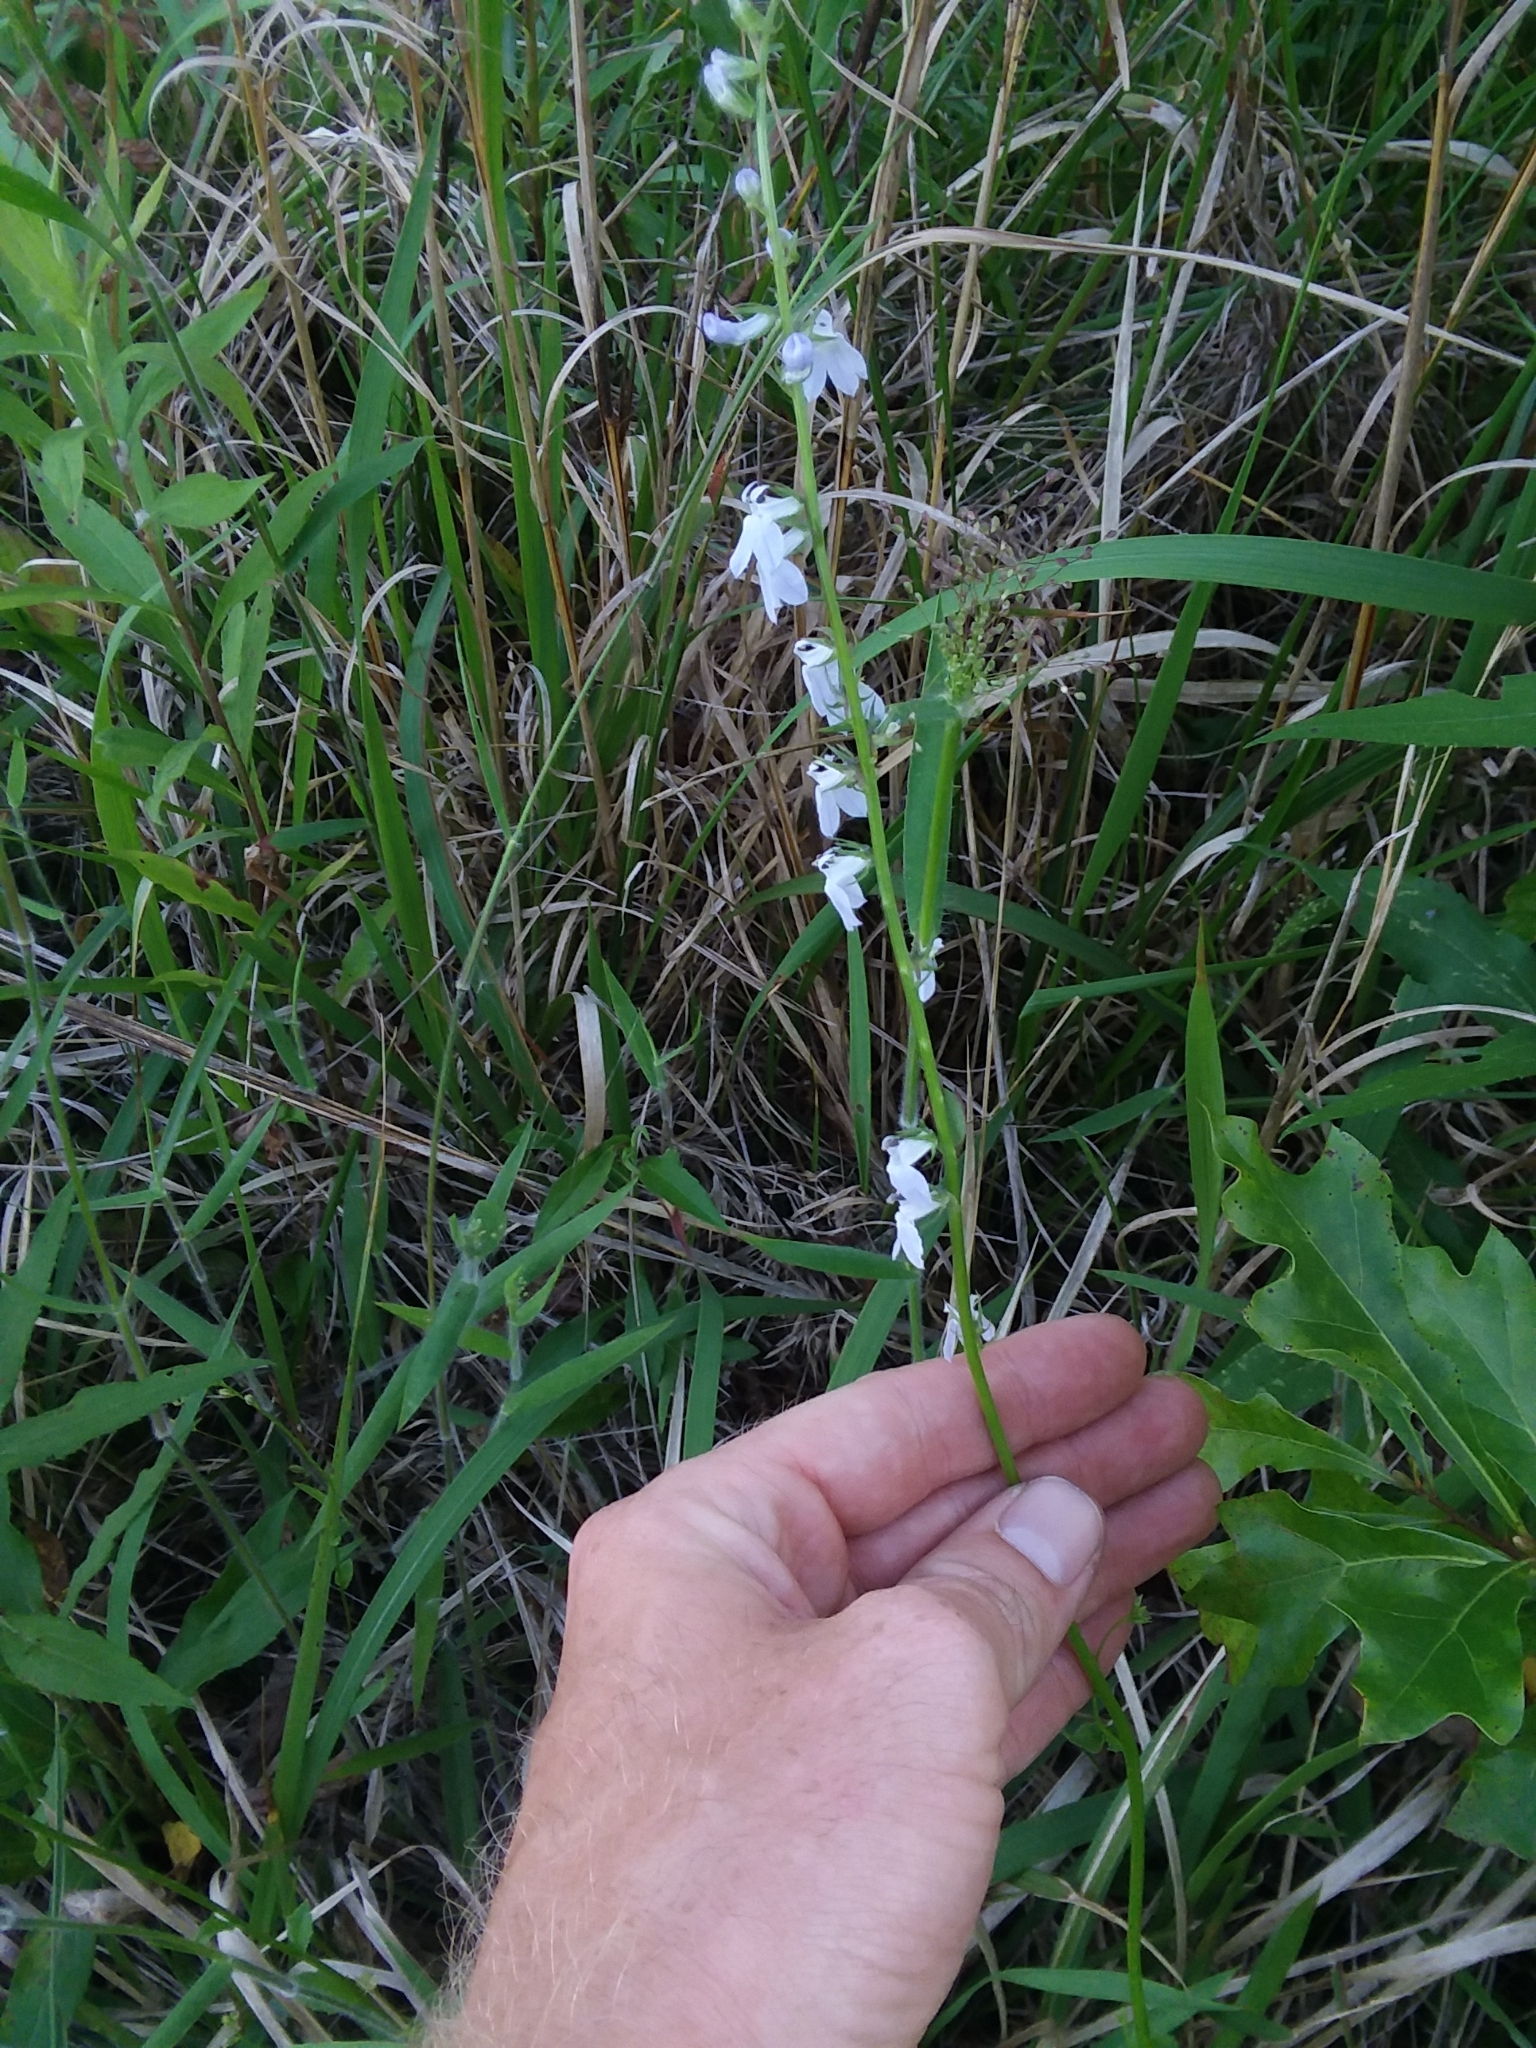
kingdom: Plantae
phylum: Tracheophyta
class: Magnoliopsida
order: Asterales
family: Campanulaceae
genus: Lobelia
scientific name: Lobelia appendiculata
